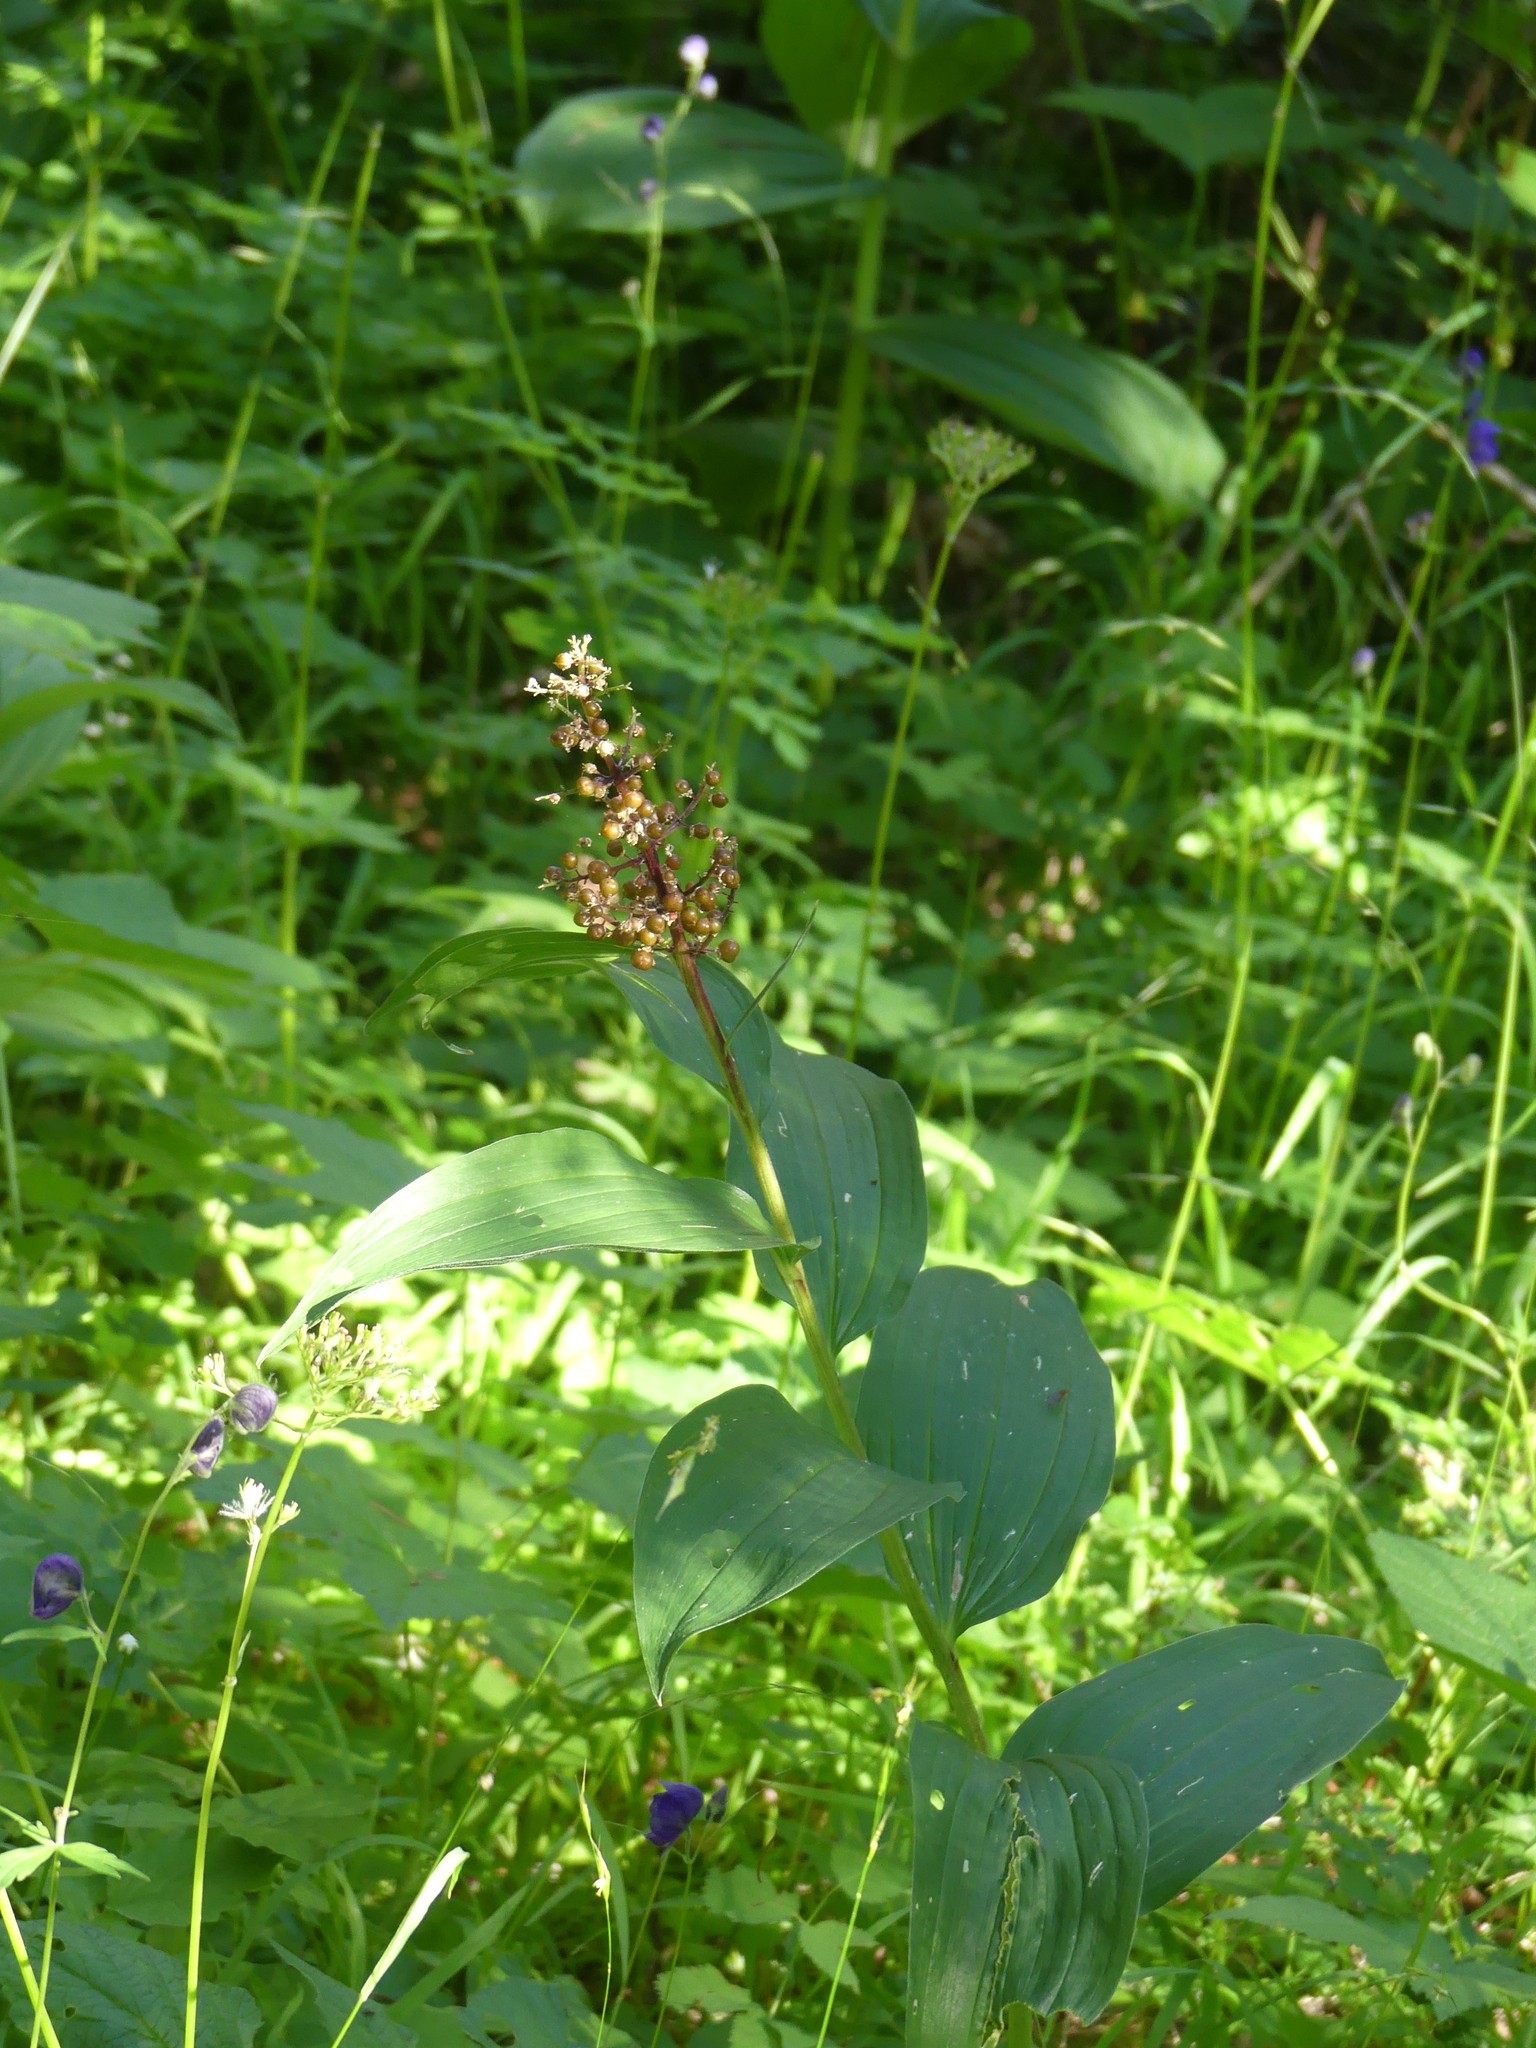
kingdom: Plantae
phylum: Tracheophyta
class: Liliopsida
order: Asparagales
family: Asparagaceae
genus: Maianthemum
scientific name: Maianthemum racemosum
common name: False spikenard
